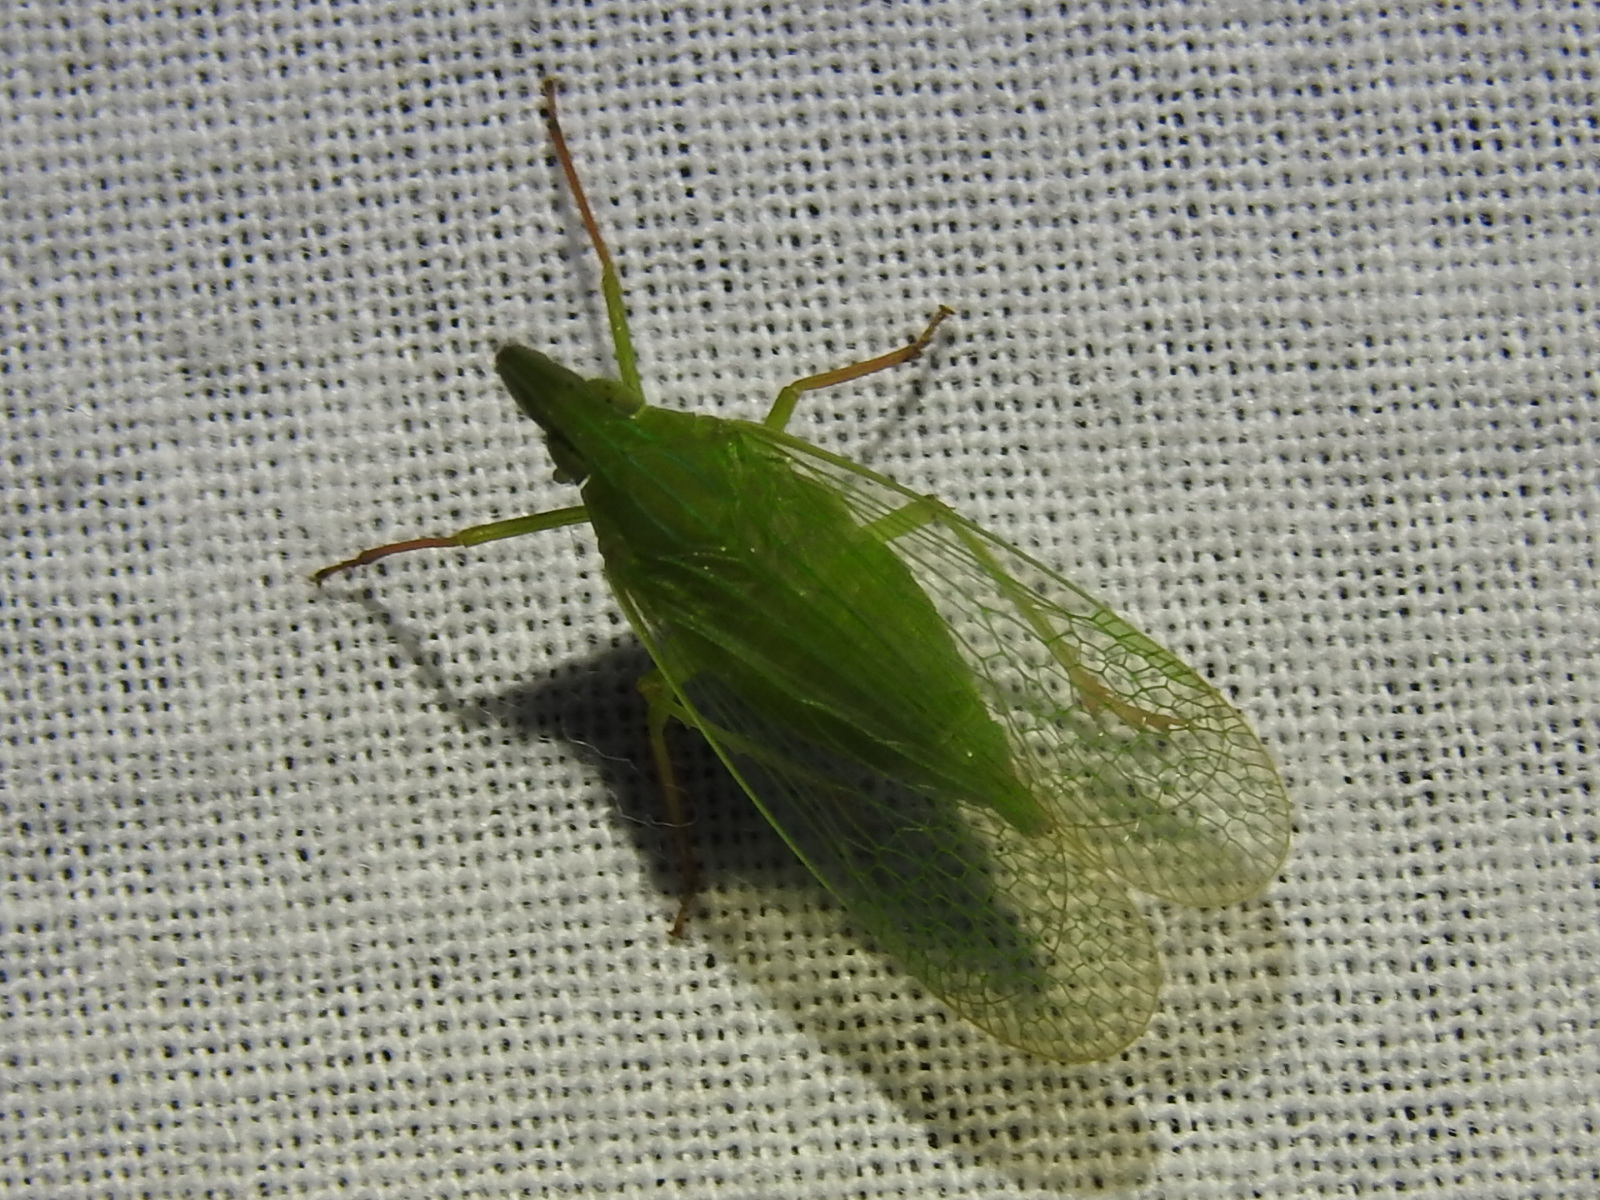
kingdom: Animalia
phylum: Arthropoda
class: Insecta
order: Hemiptera
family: Dictyopharidae
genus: Rhynchomitra
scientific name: Rhynchomitra microrhina
